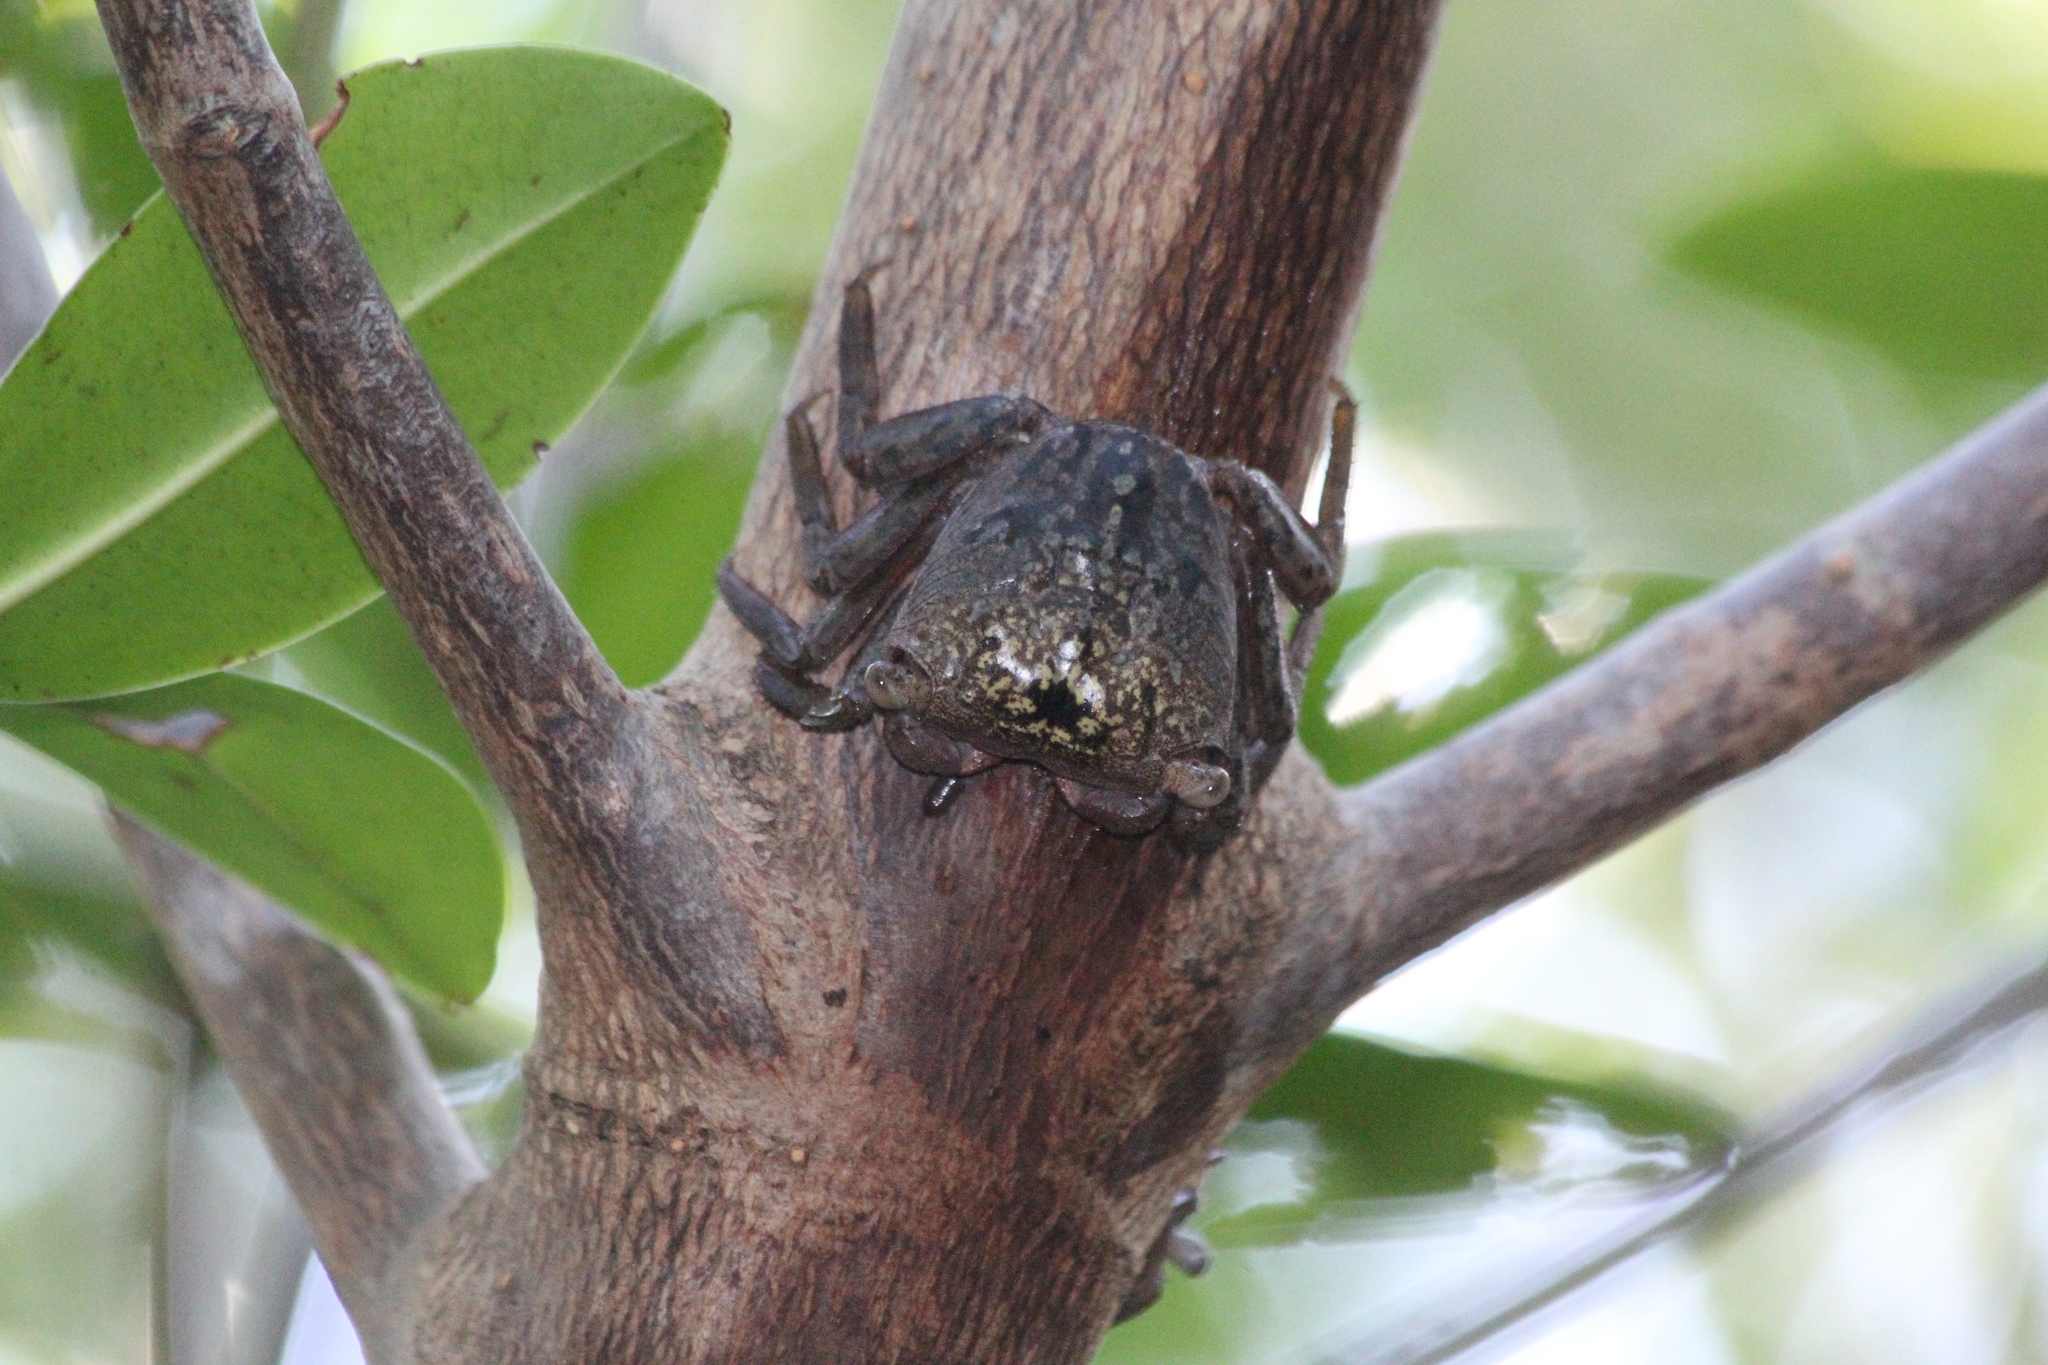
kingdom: Animalia
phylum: Arthropoda
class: Malacostraca
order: Decapoda
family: Sesarmidae
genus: Aratus
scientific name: Aratus pisonii
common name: Mangrove crab
